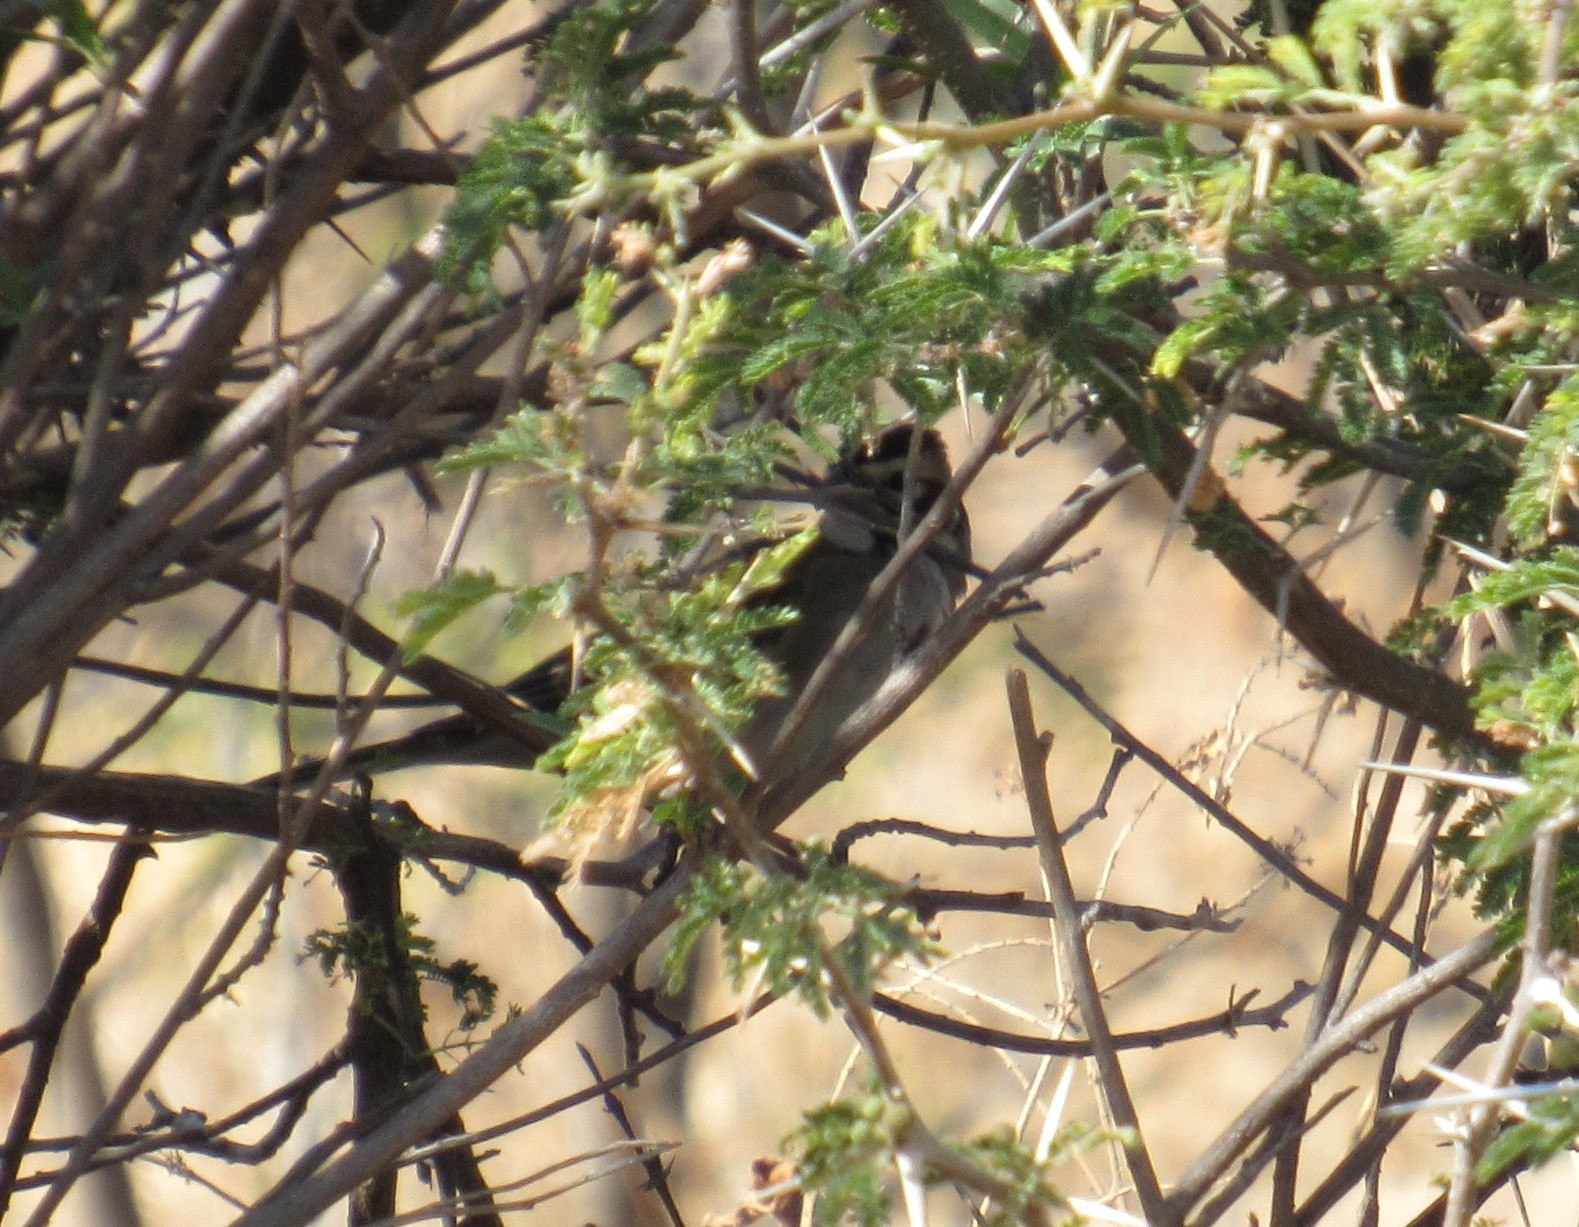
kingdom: Animalia
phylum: Chordata
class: Aves
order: Passeriformes
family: Passerellidae
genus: Chondestes
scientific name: Chondestes grammacus
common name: Lark sparrow
